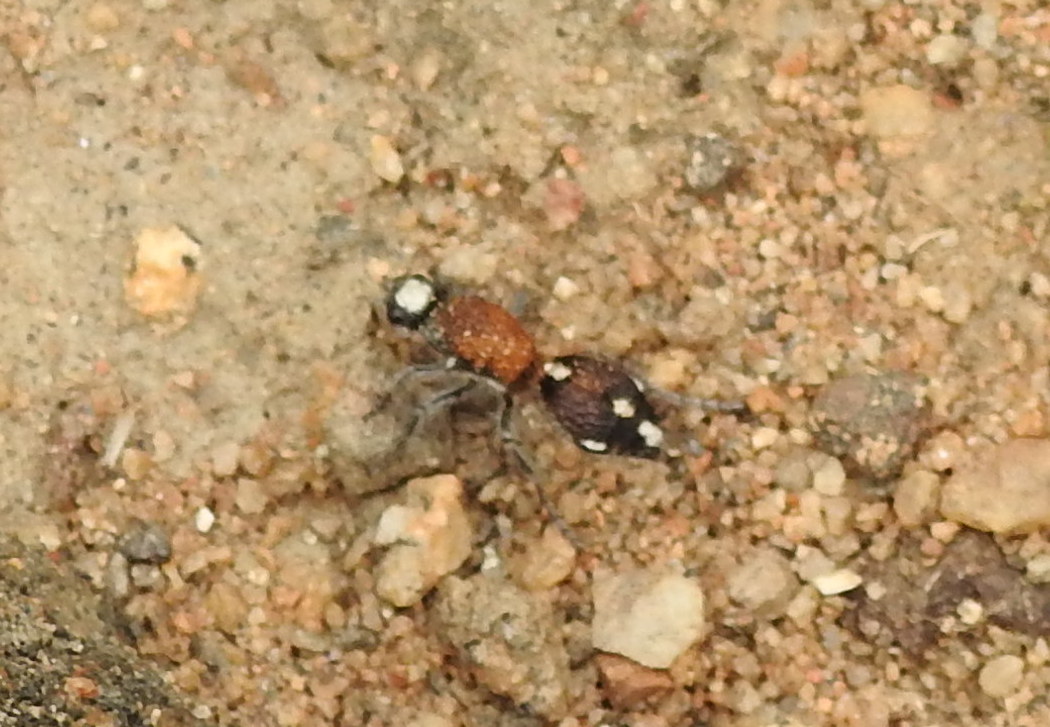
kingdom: Animalia
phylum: Arthropoda
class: Insecta
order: Hymenoptera
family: Mutillidae
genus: Dasylabris
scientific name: Dasylabris
